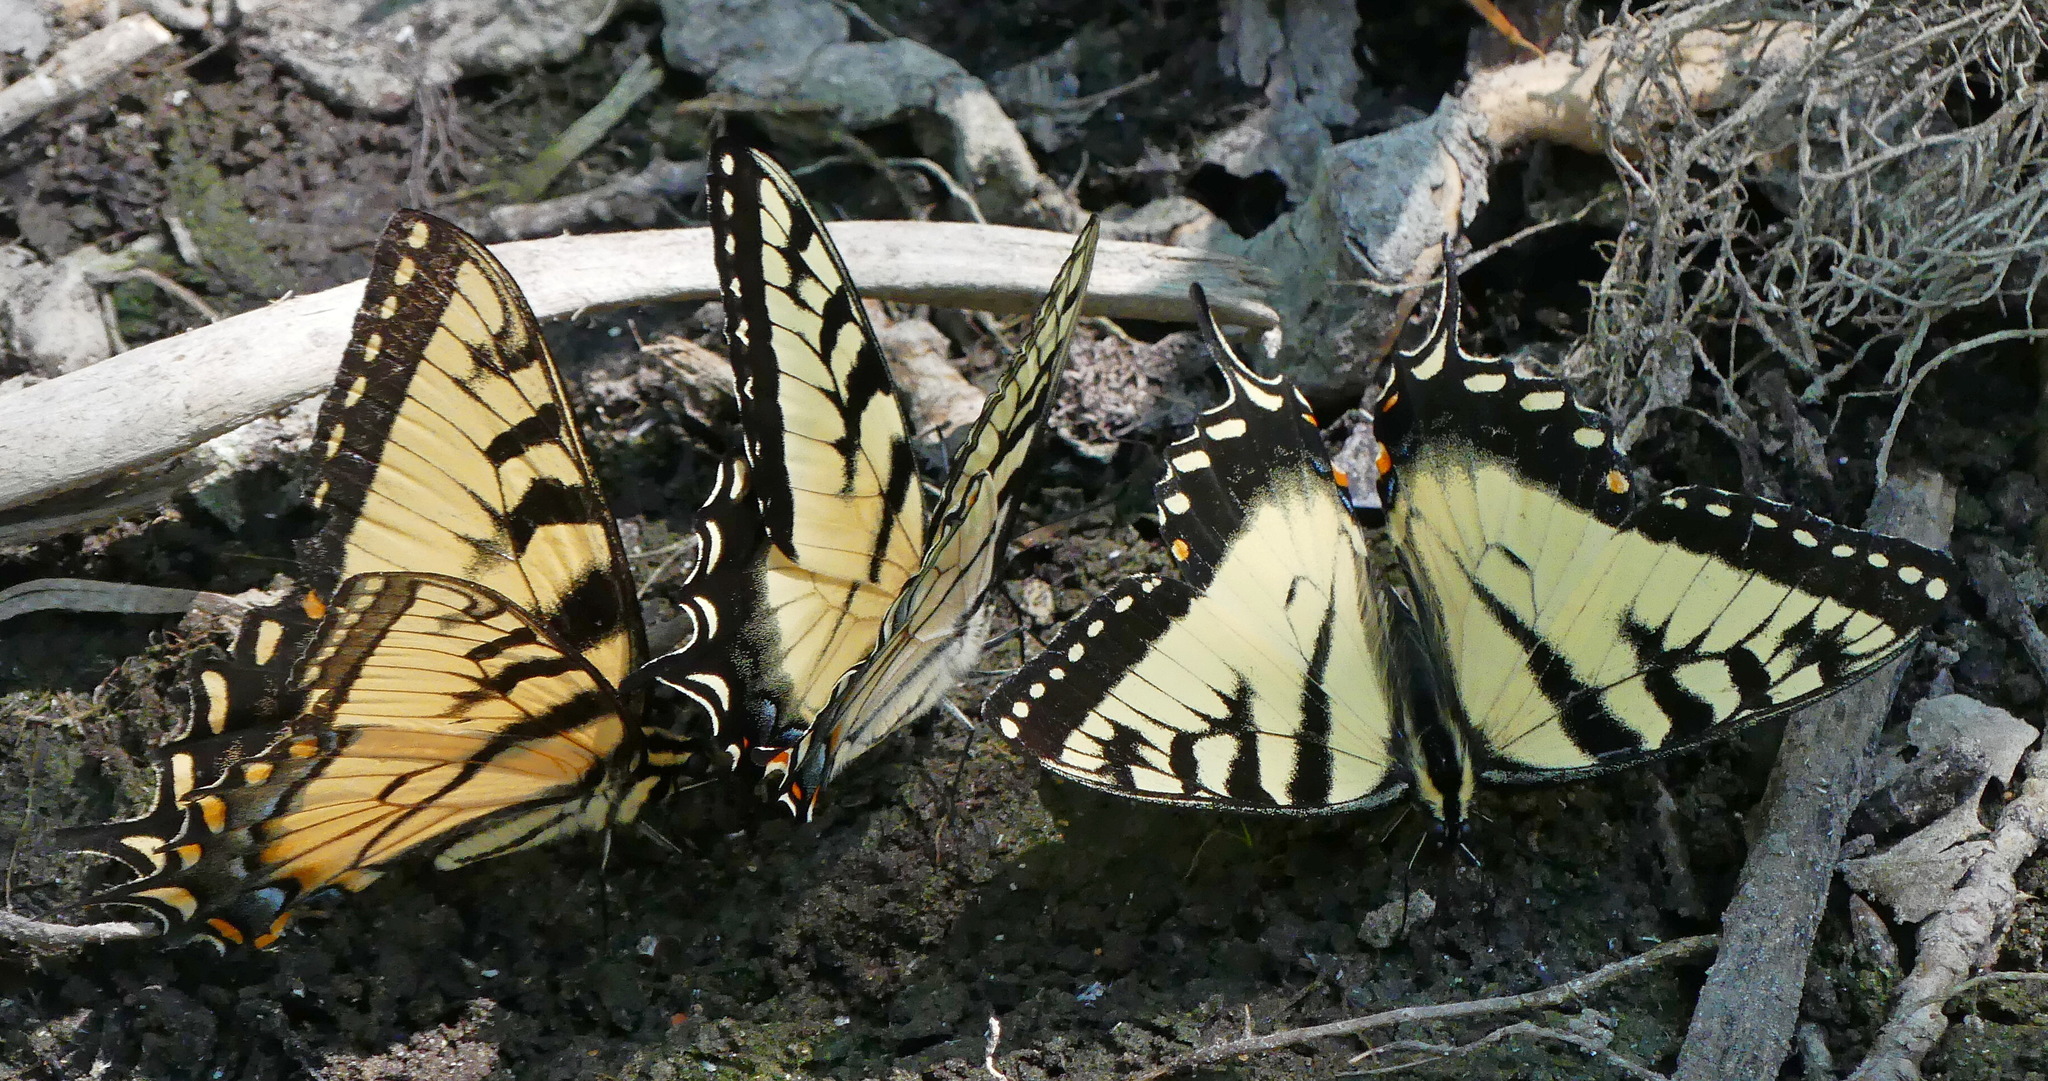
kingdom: Animalia
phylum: Arthropoda
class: Insecta
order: Lepidoptera
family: Papilionidae
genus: Papilio
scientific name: Papilio
